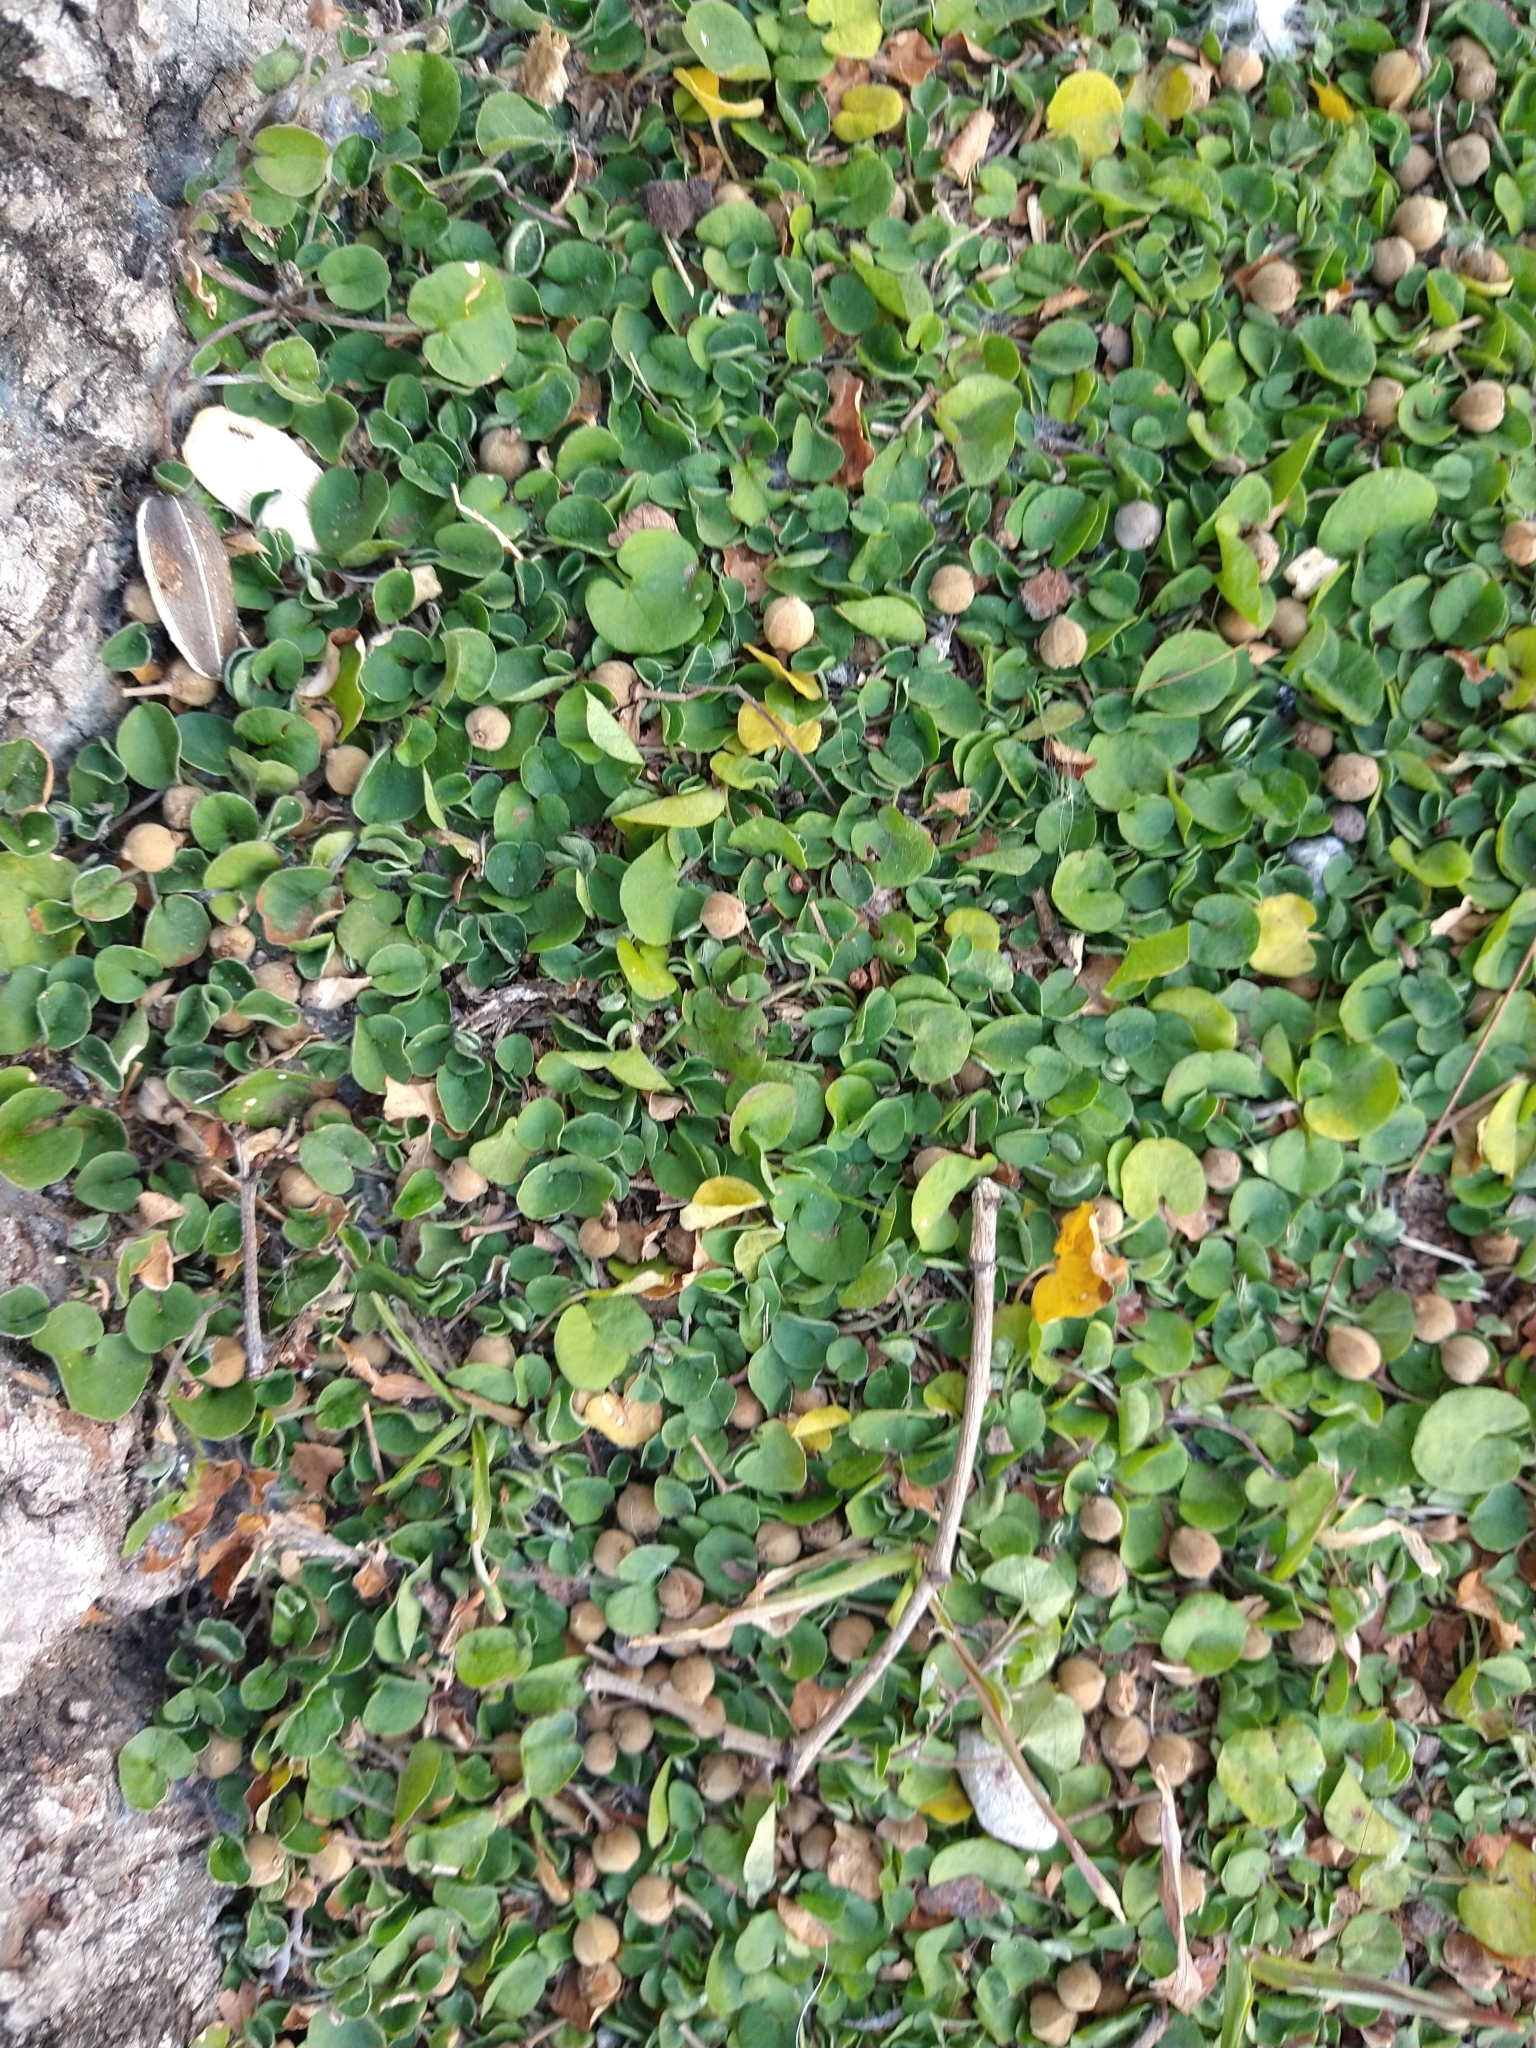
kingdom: Plantae
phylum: Tracheophyta
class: Magnoliopsida
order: Solanales
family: Convolvulaceae
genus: Dichondra
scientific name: Dichondra repens
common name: Kidneyweed
